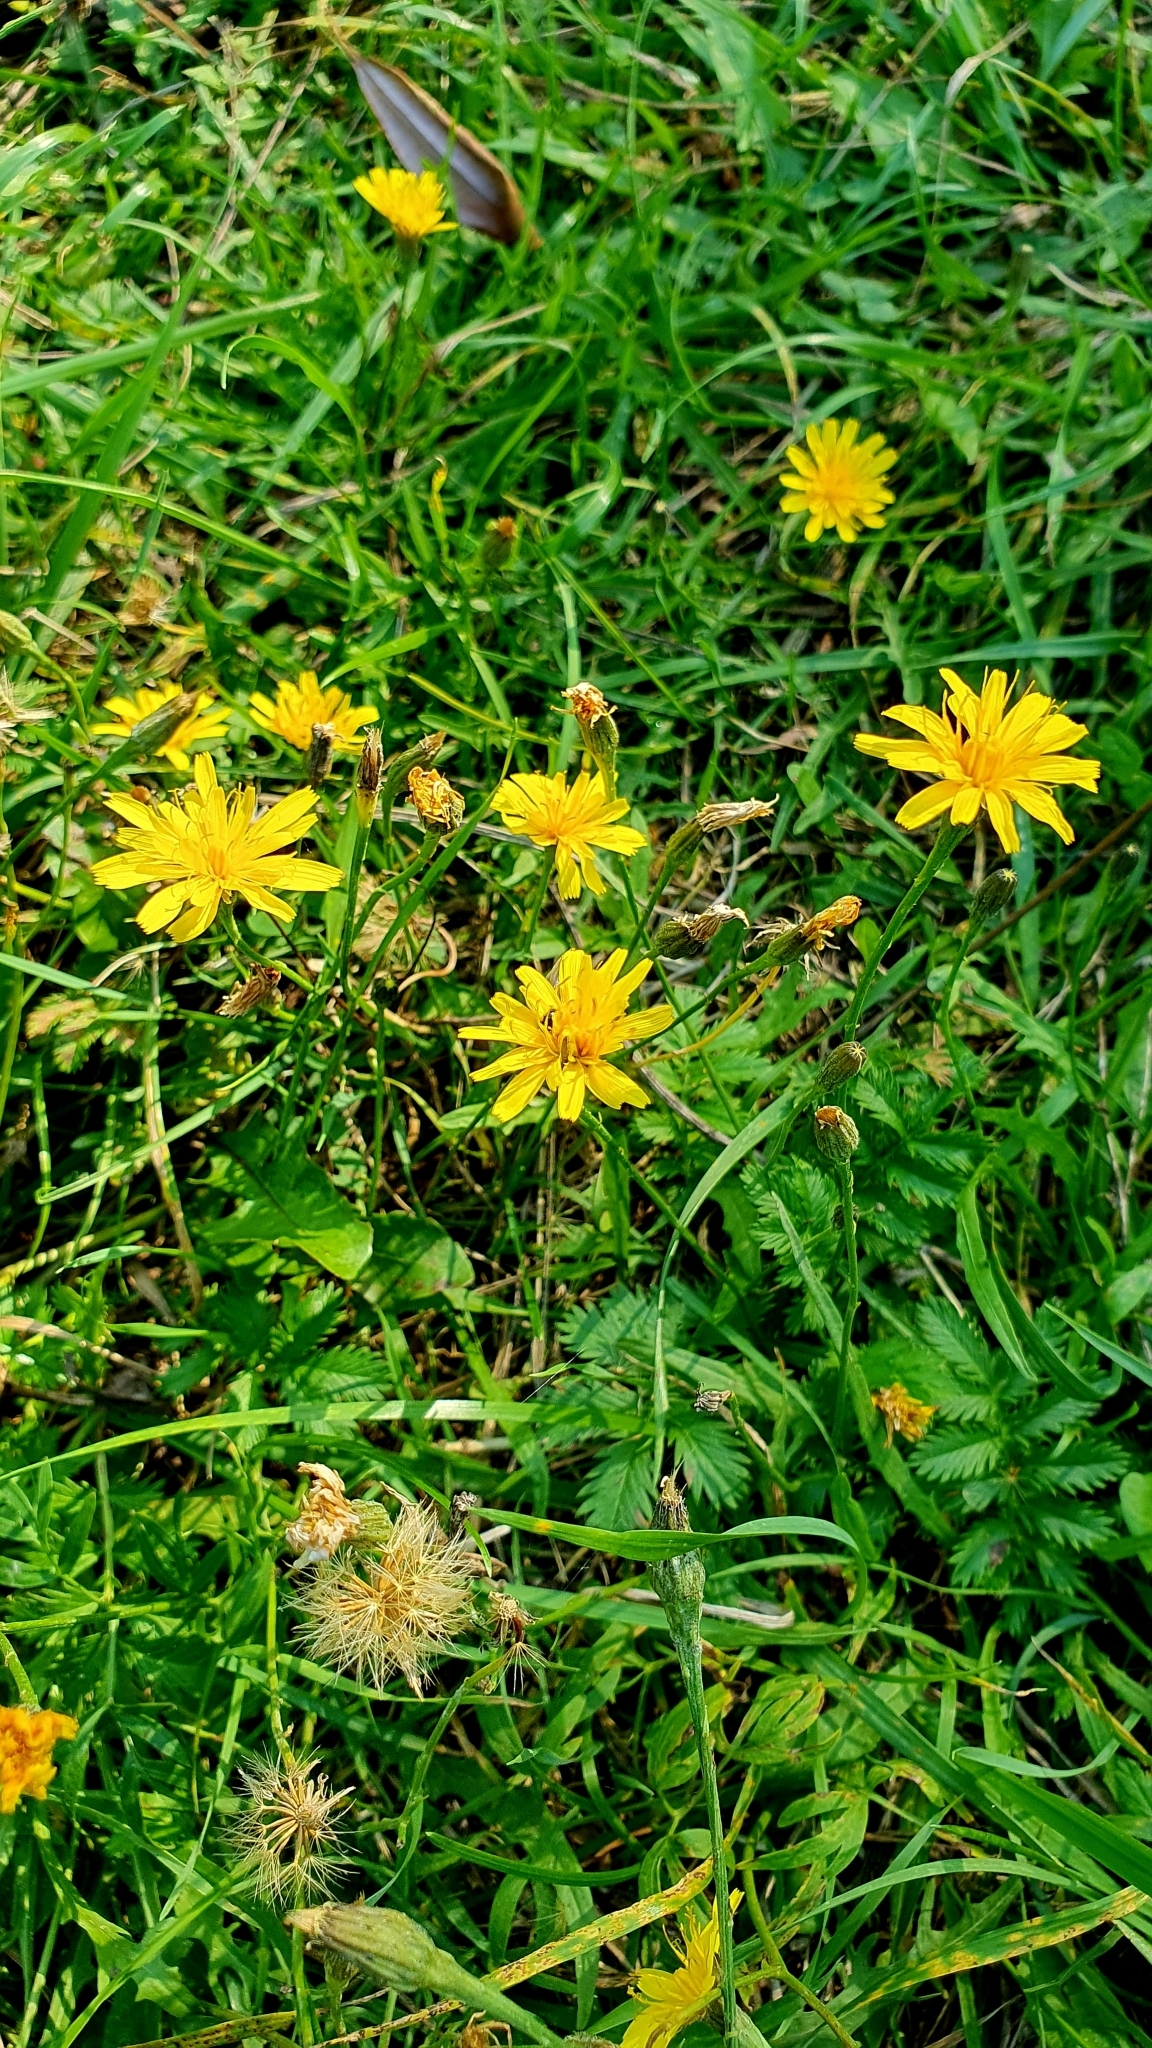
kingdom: Plantae
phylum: Tracheophyta
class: Magnoliopsida
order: Asterales
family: Asteraceae
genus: Scorzoneroides
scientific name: Scorzoneroides autumnalis
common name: Autumn hawkbit
